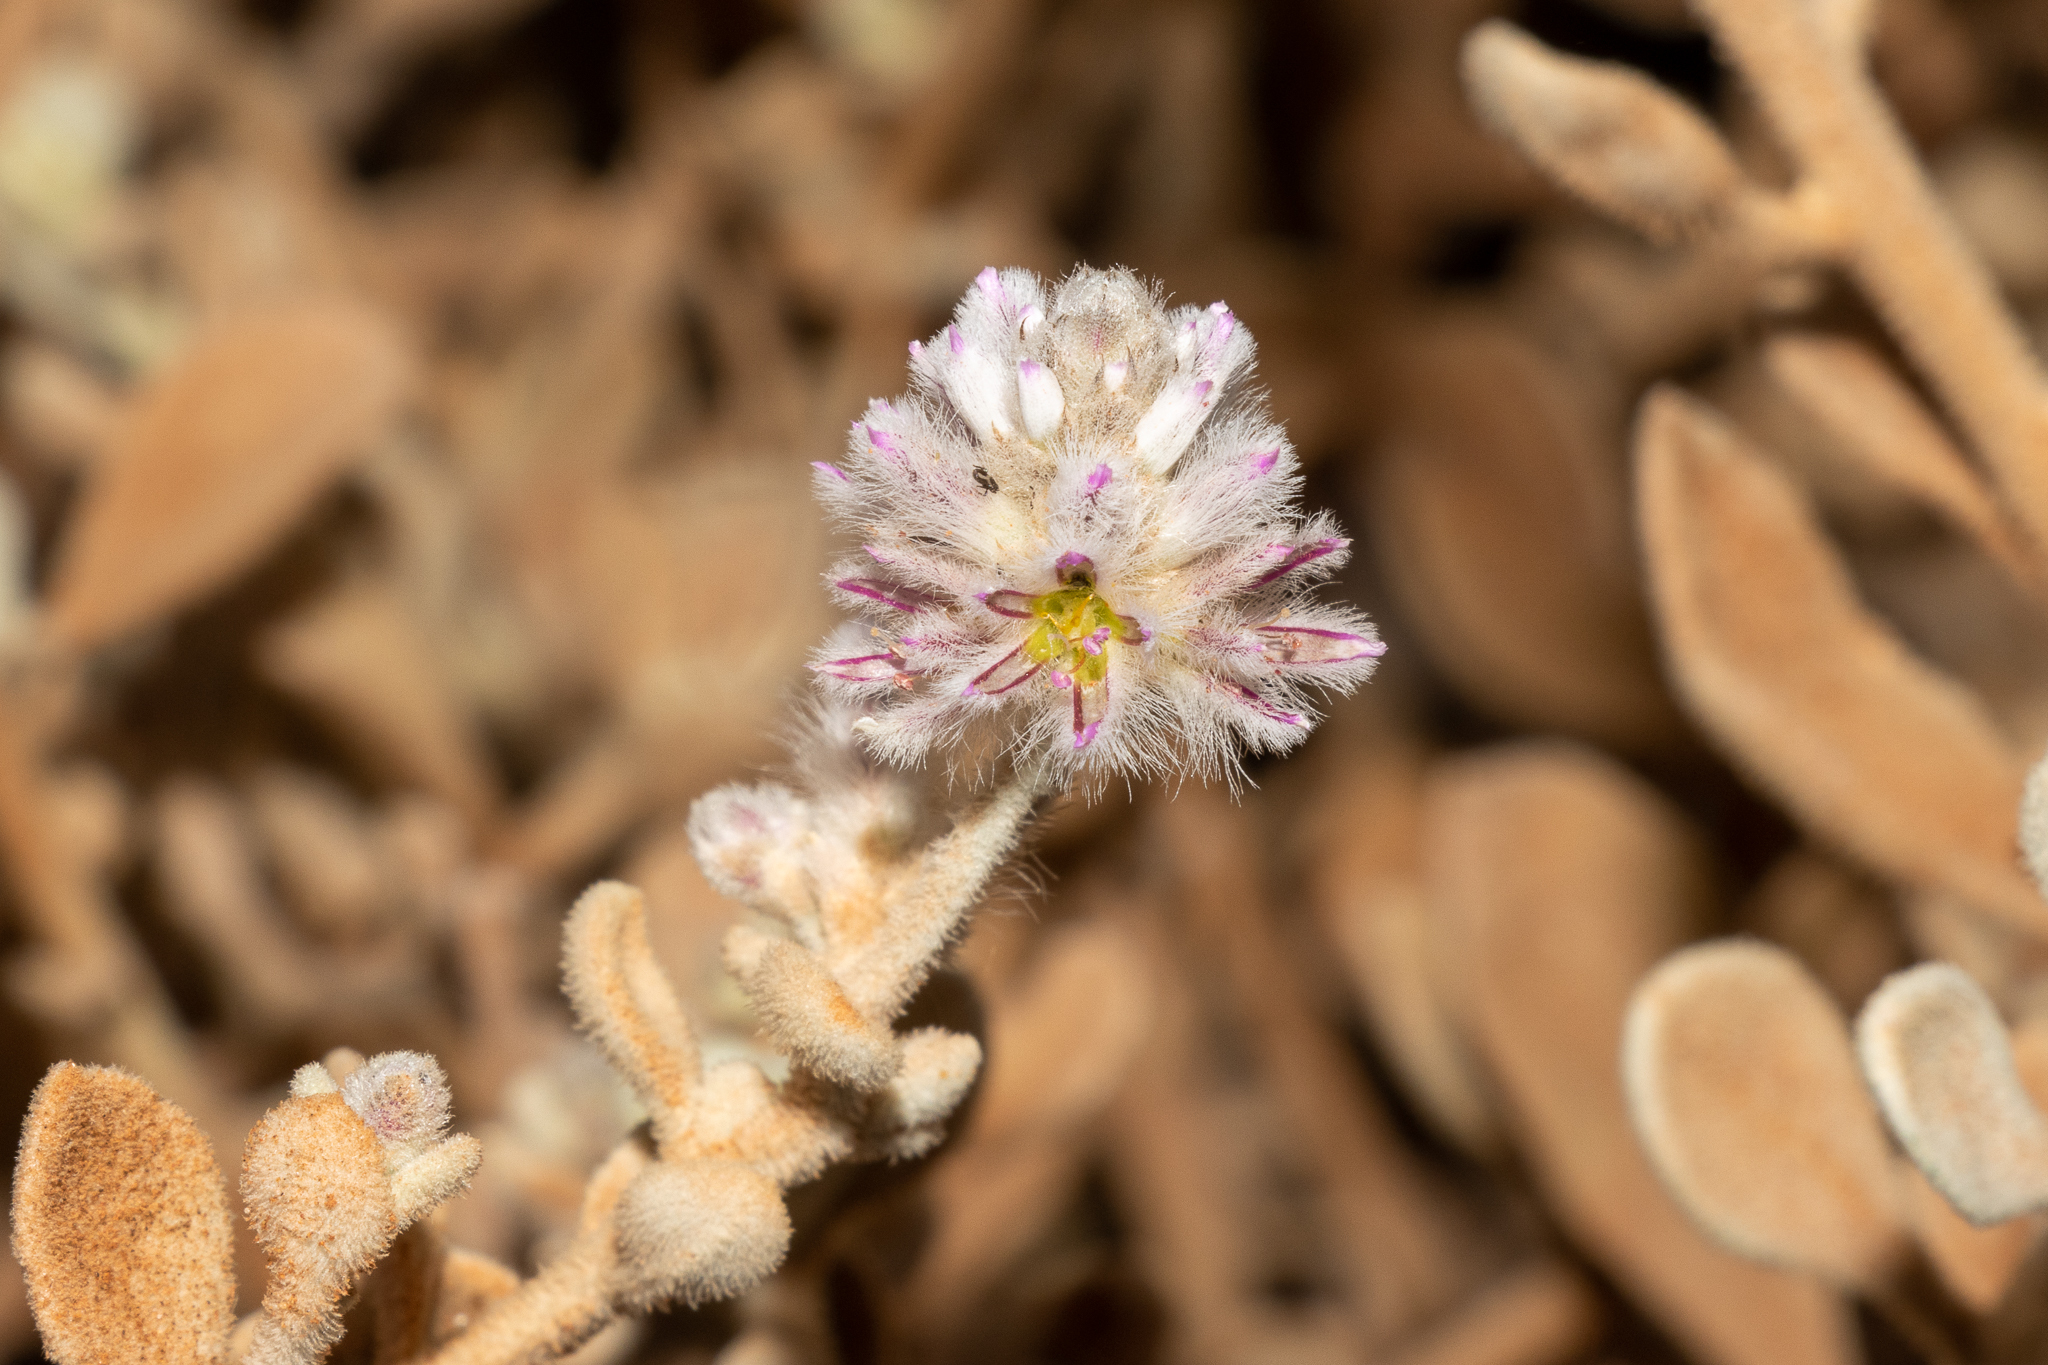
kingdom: Plantae
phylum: Tracheophyta
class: Magnoliopsida
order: Caryophyllales
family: Amaranthaceae
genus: Ptilotus
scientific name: Ptilotus obovatus
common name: Cottonbush
